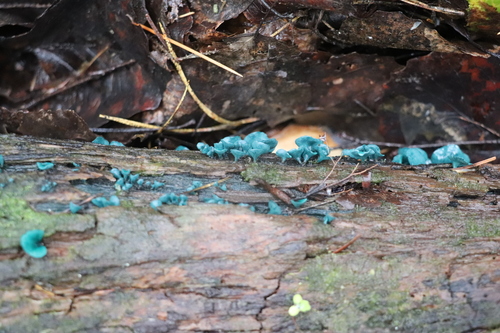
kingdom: Fungi
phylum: Ascomycota
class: Leotiomycetes
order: Helotiales
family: Chlorociboriaceae
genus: Chlorociboria
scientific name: Chlorociboria aeruginascens
